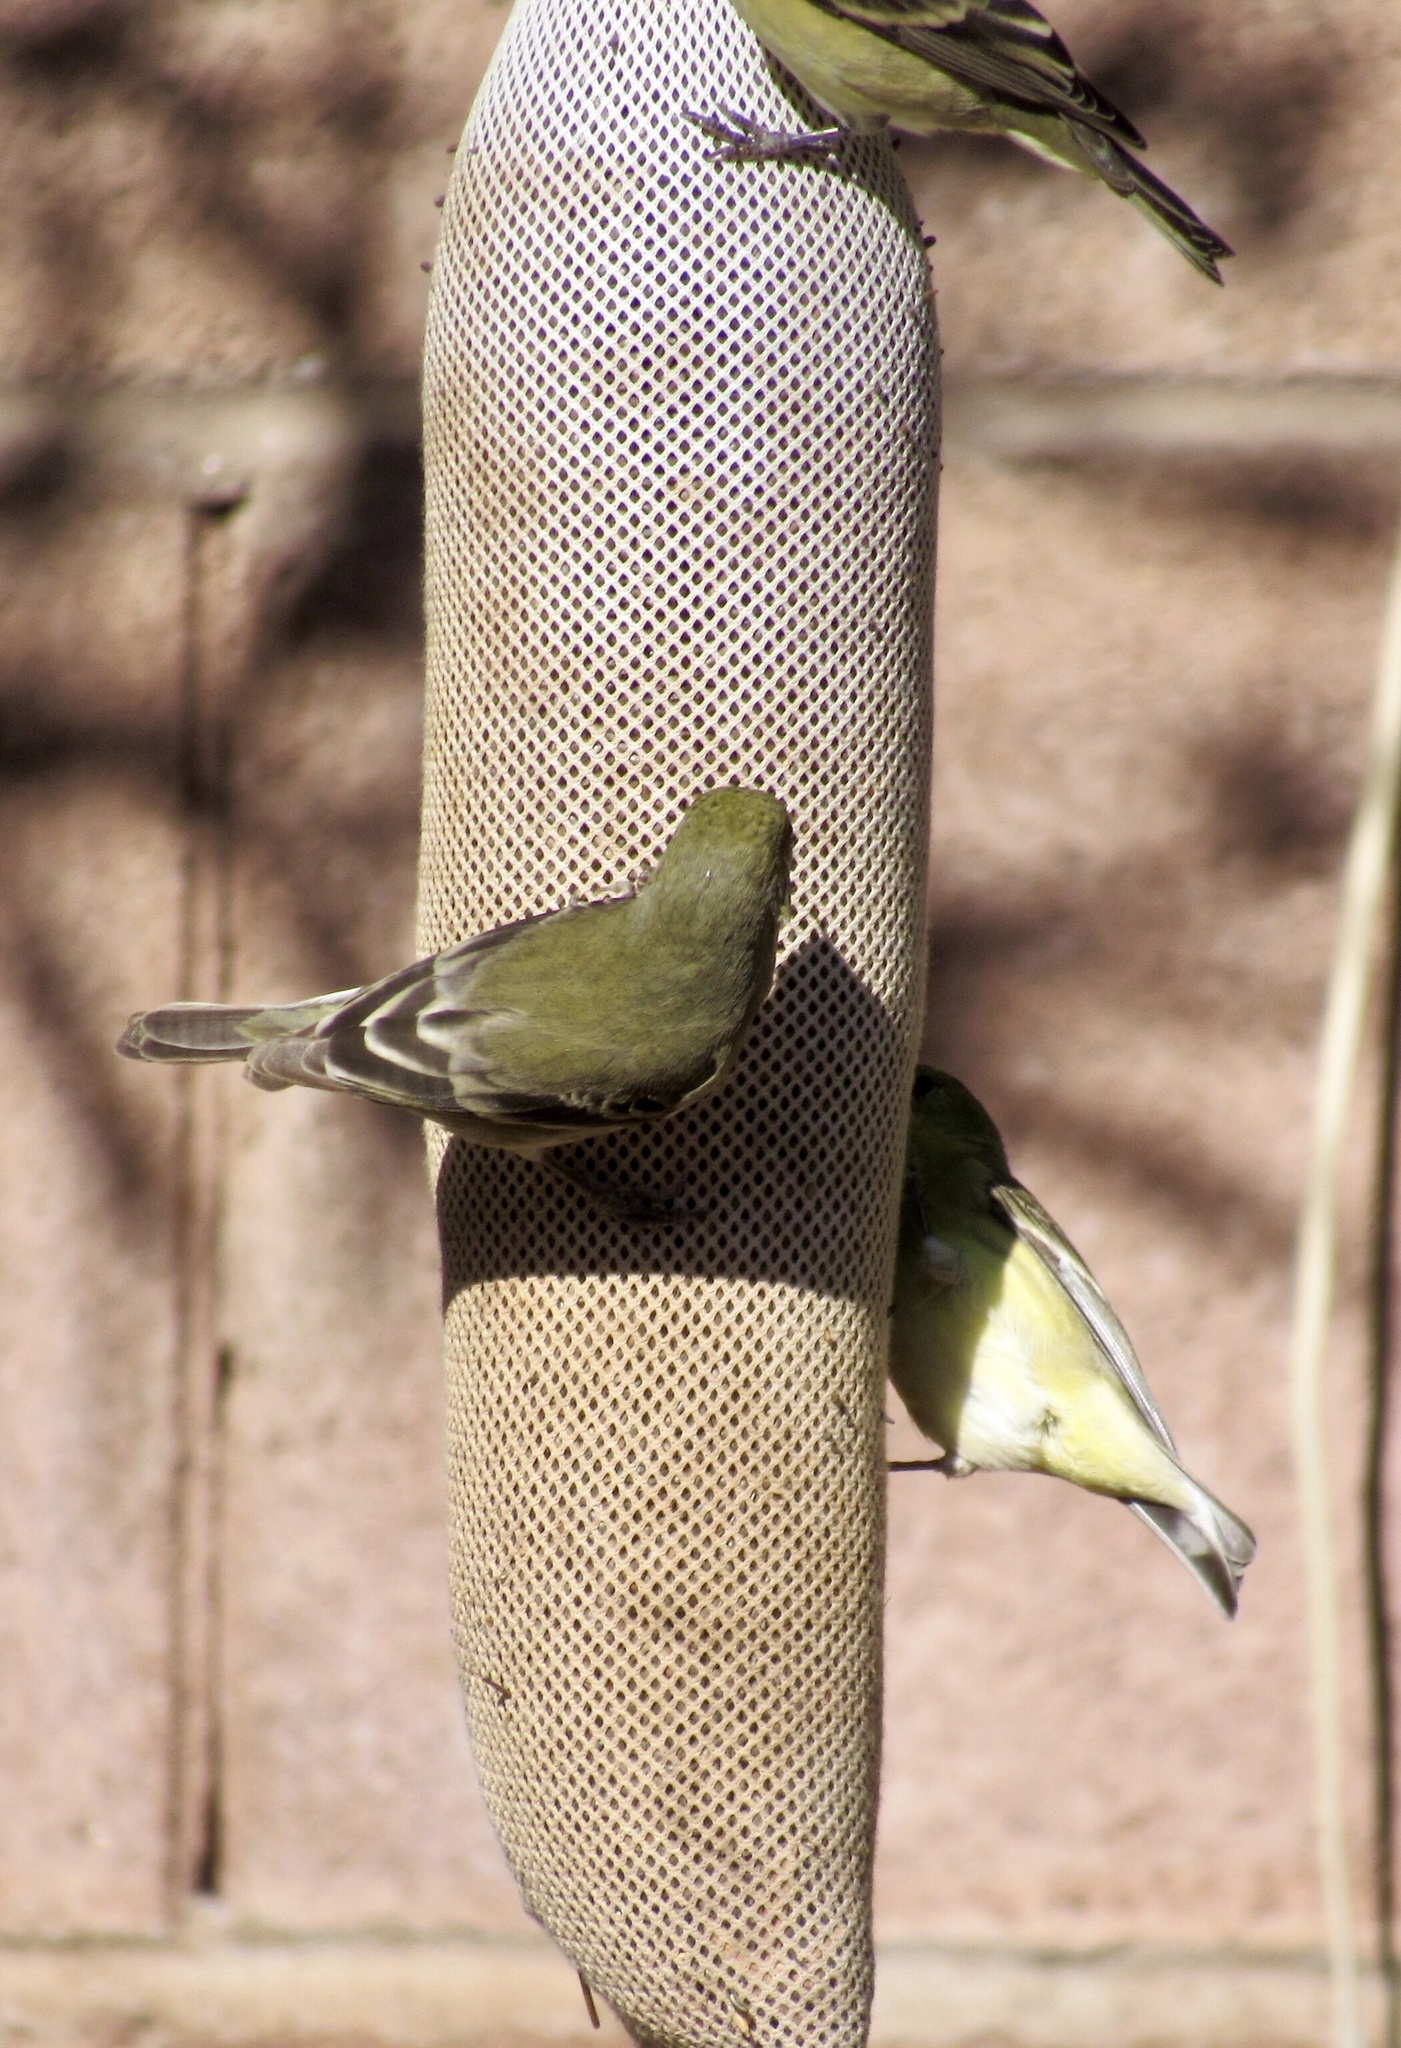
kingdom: Animalia
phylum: Chordata
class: Aves
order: Passeriformes
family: Fringillidae
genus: Spinus
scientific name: Spinus psaltria
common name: Lesser goldfinch
